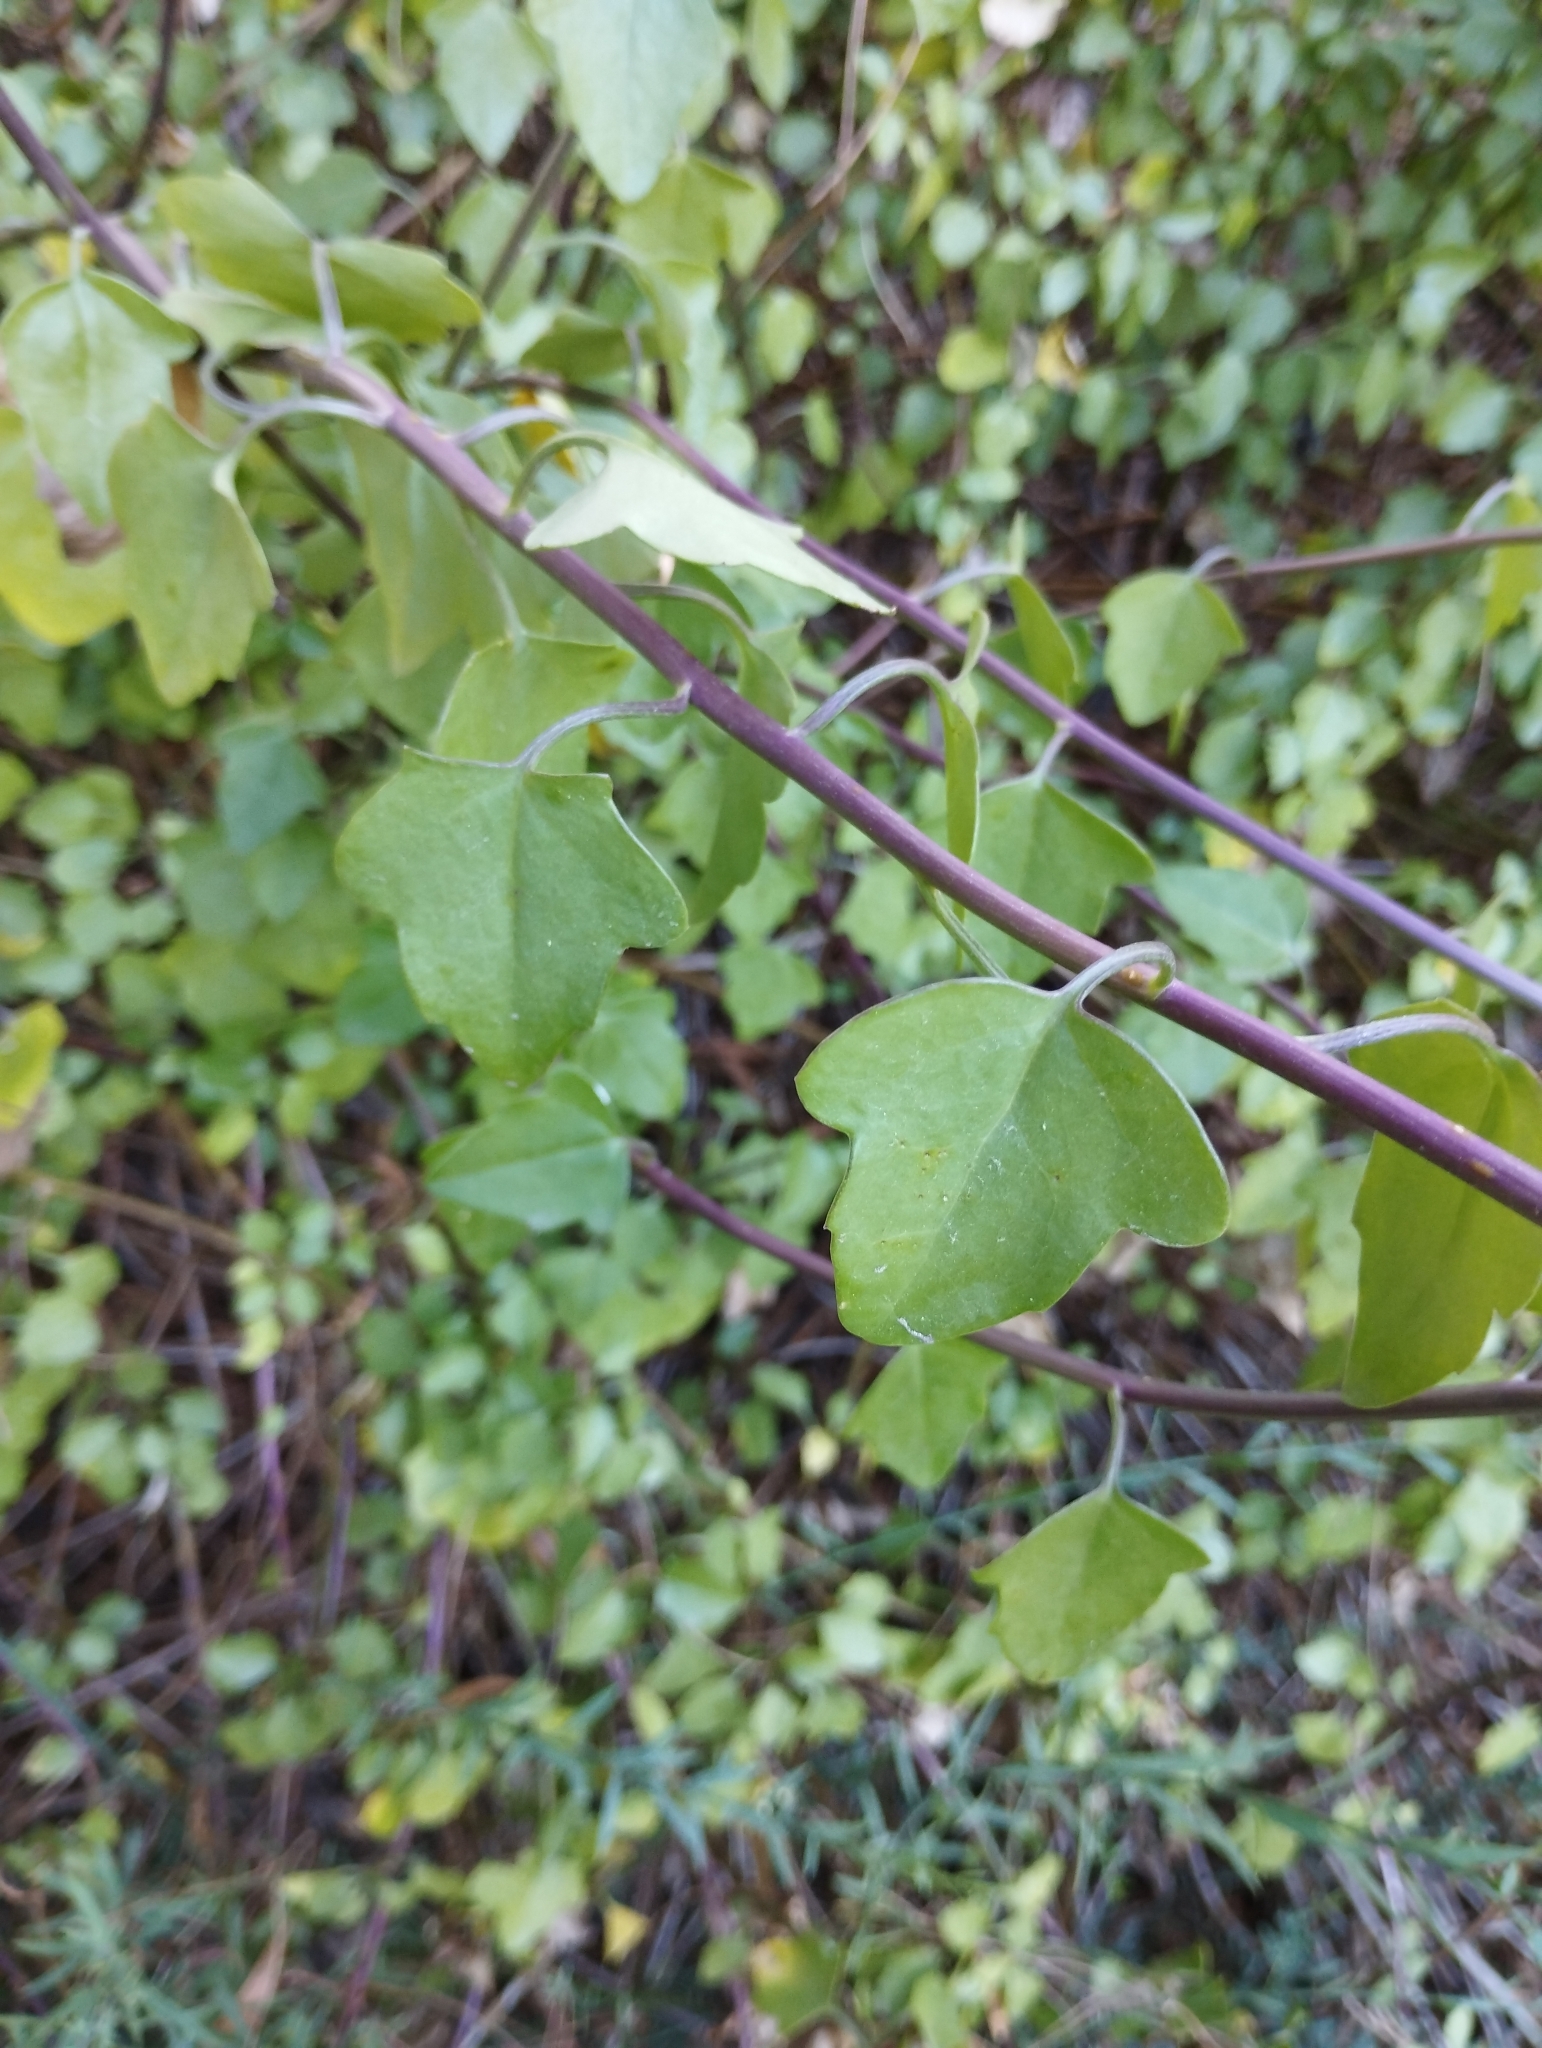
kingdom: Plantae
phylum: Tracheophyta
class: Magnoliopsida
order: Asterales
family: Asteraceae
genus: Senecio
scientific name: Senecio angulatus
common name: Climbing groundsel
